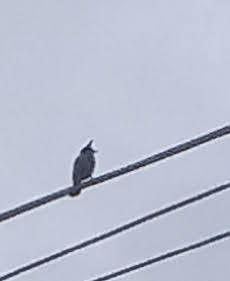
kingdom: Animalia
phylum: Chordata
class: Aves
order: Passeriformes
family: Pycnonotidae
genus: Pycnonotus
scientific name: Pycnonotus jocosus
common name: Red-whiskered bulbul
